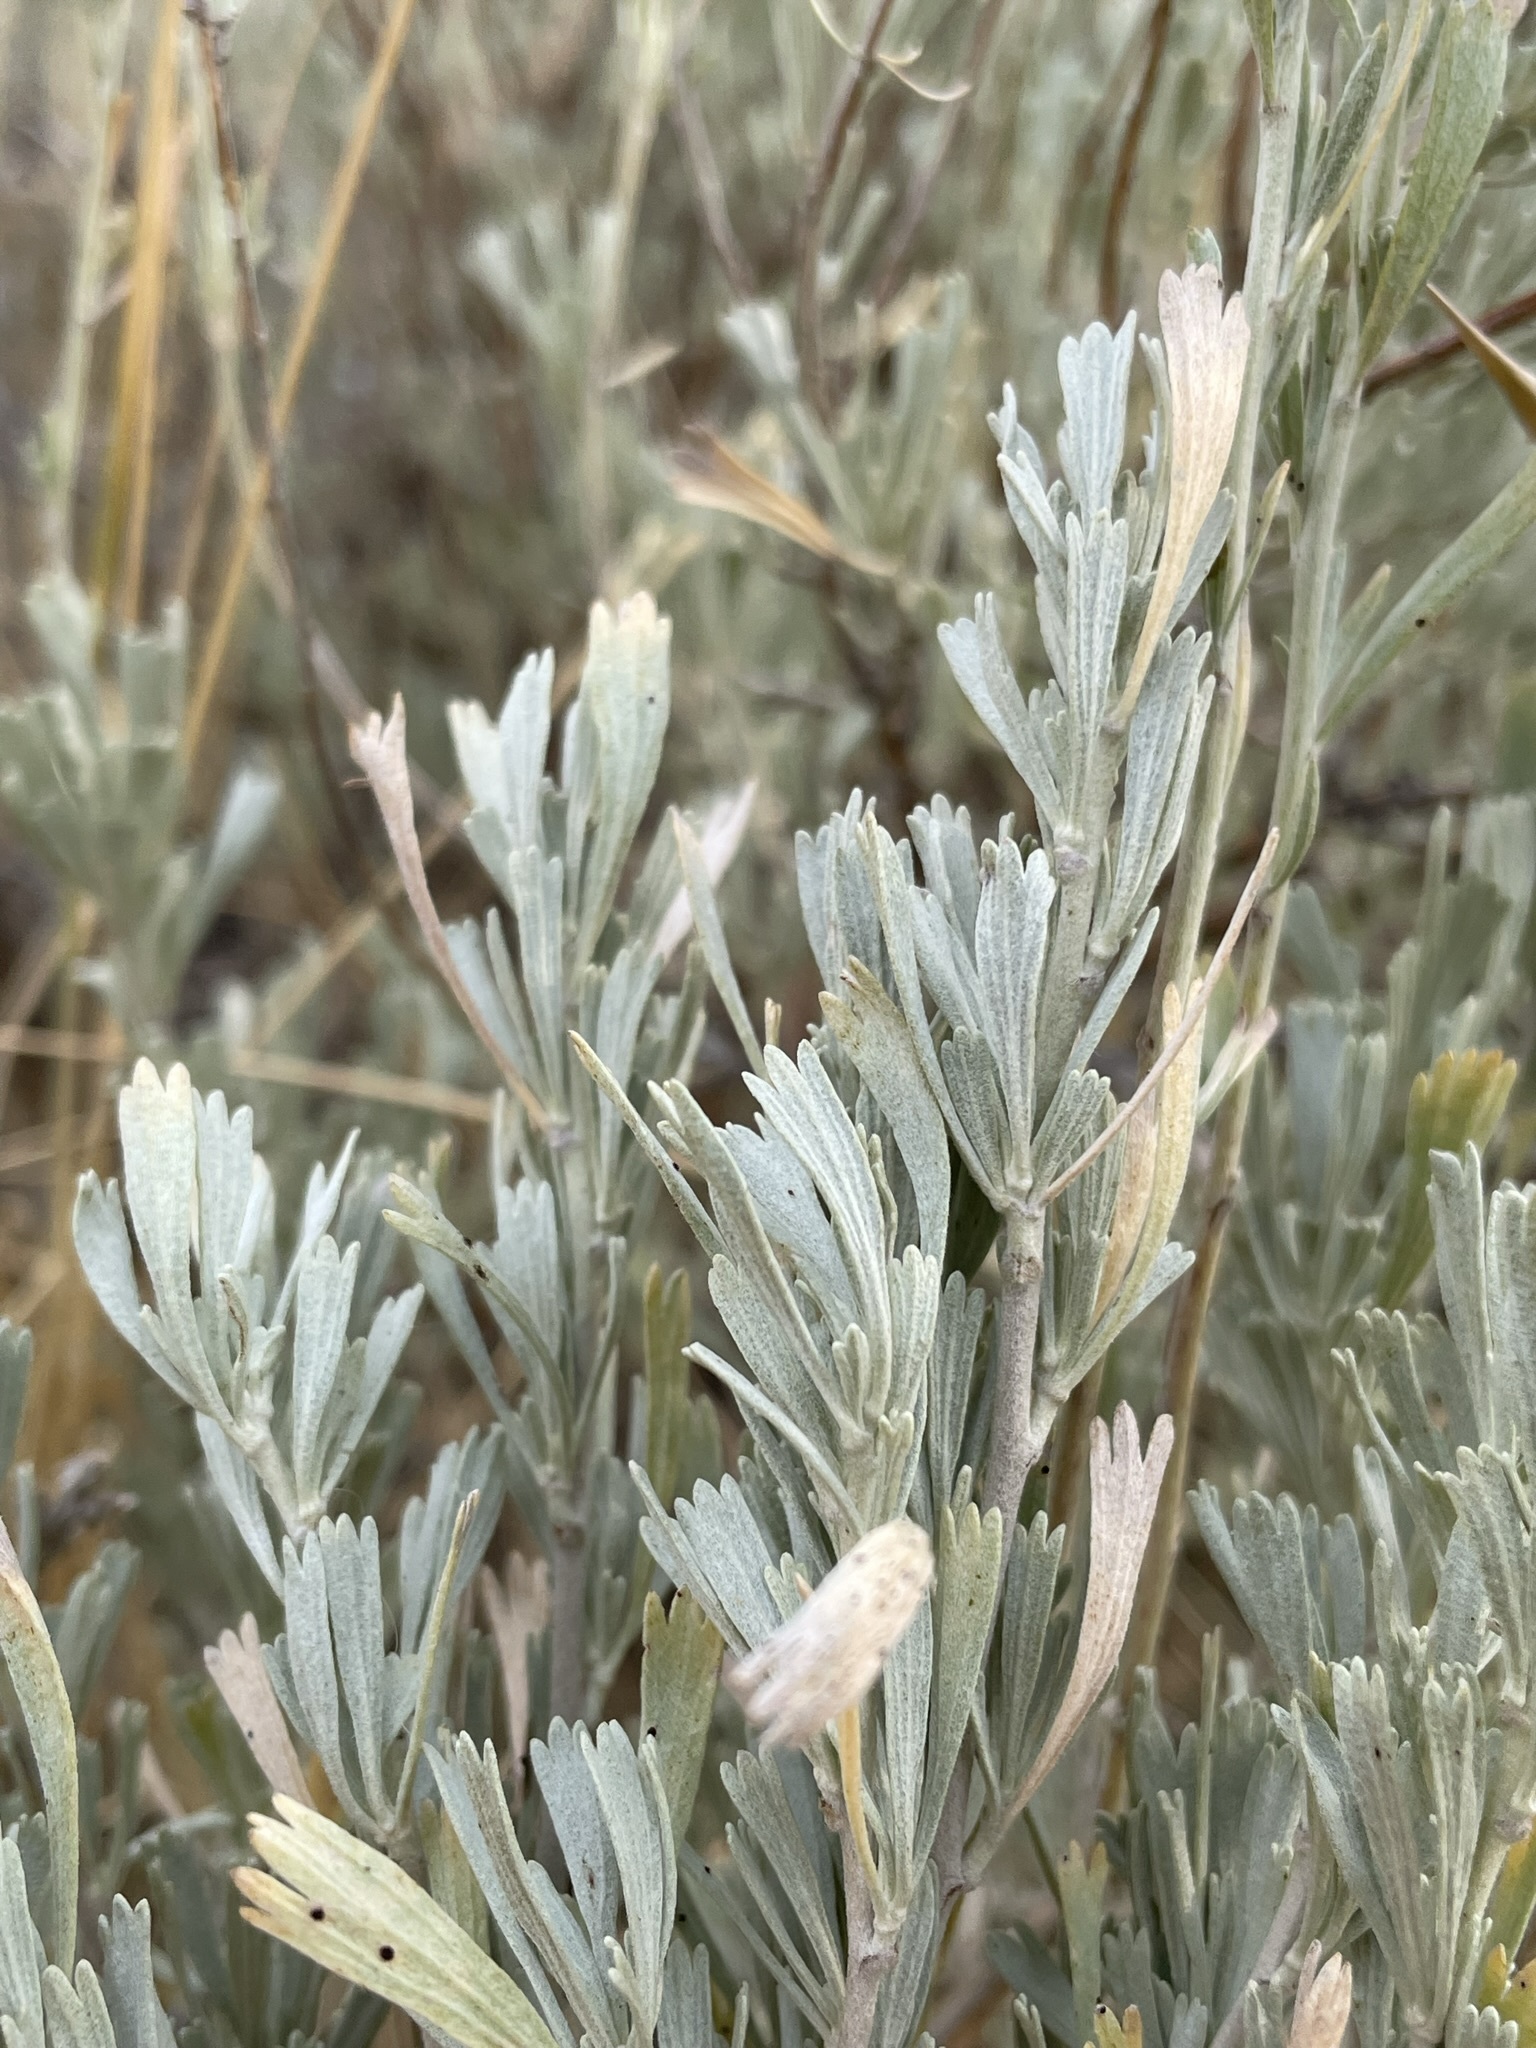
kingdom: Plantae
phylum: Tracheophyta
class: Magnoliopsida
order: Asterales
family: Asteraceae
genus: Artemisia
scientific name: Artemisia tridentata
